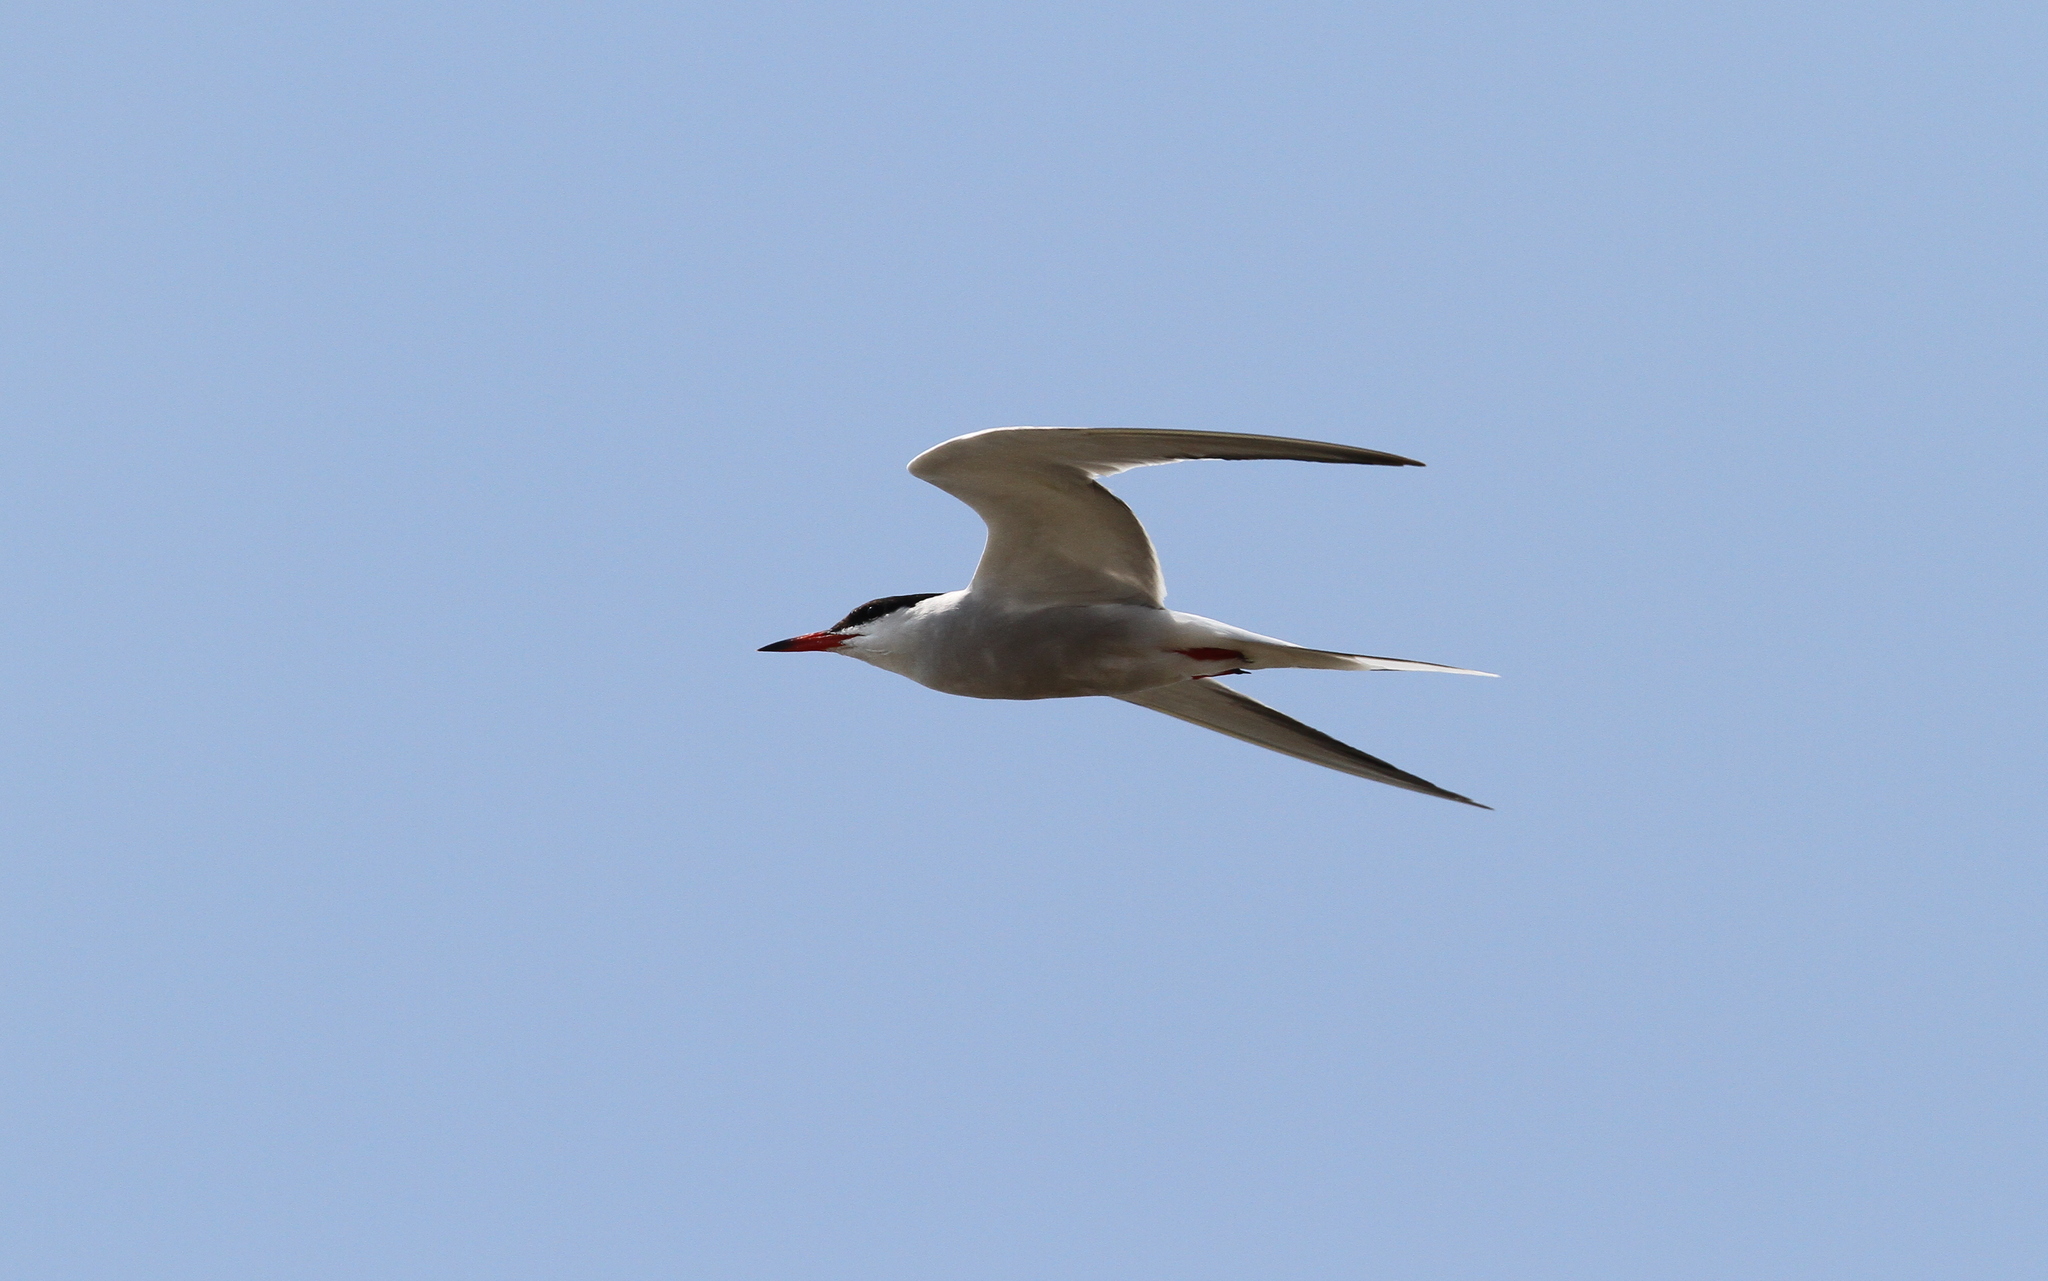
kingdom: Animalia
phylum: Chordata
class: Aves
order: Charadriiformes
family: Laridae
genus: Sterna
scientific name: Sterna hirundo
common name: Common tern
